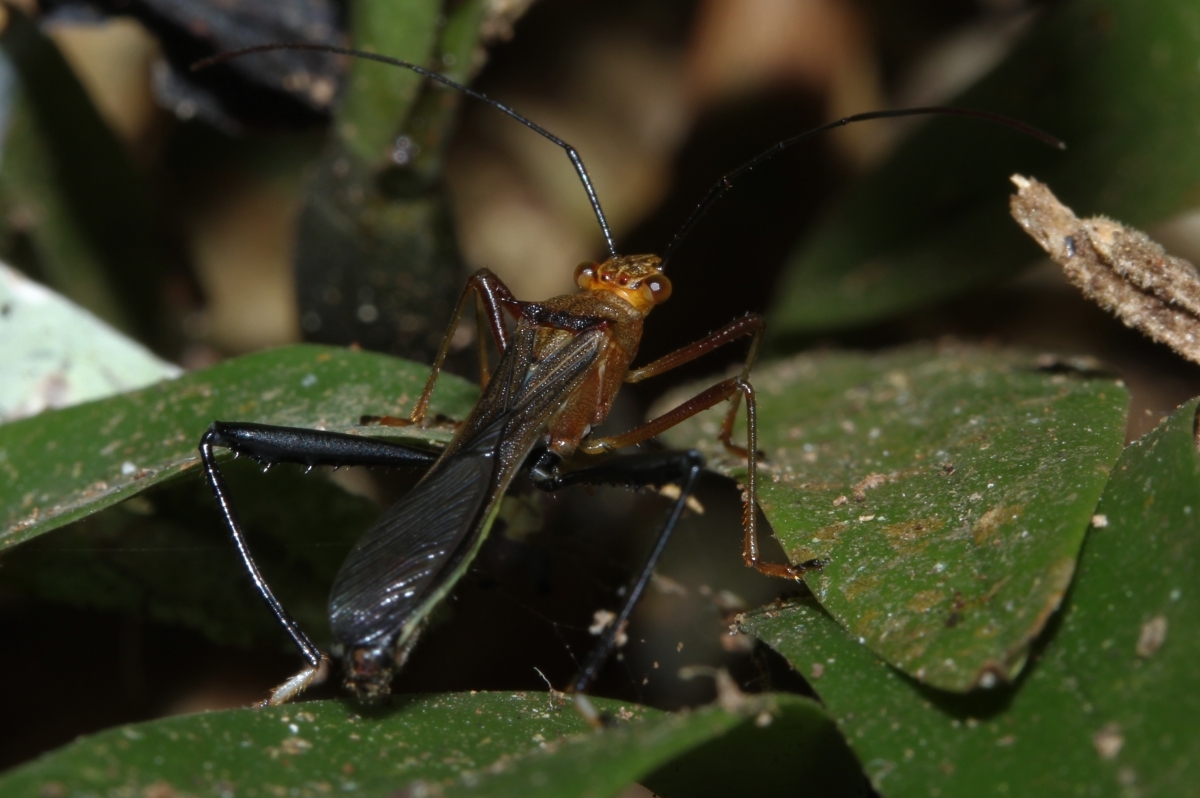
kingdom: Animalia
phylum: Arthropoda
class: Insecta
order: Hemiptera
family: Alydidae
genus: Hyalymenus
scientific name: Hyalymenus
